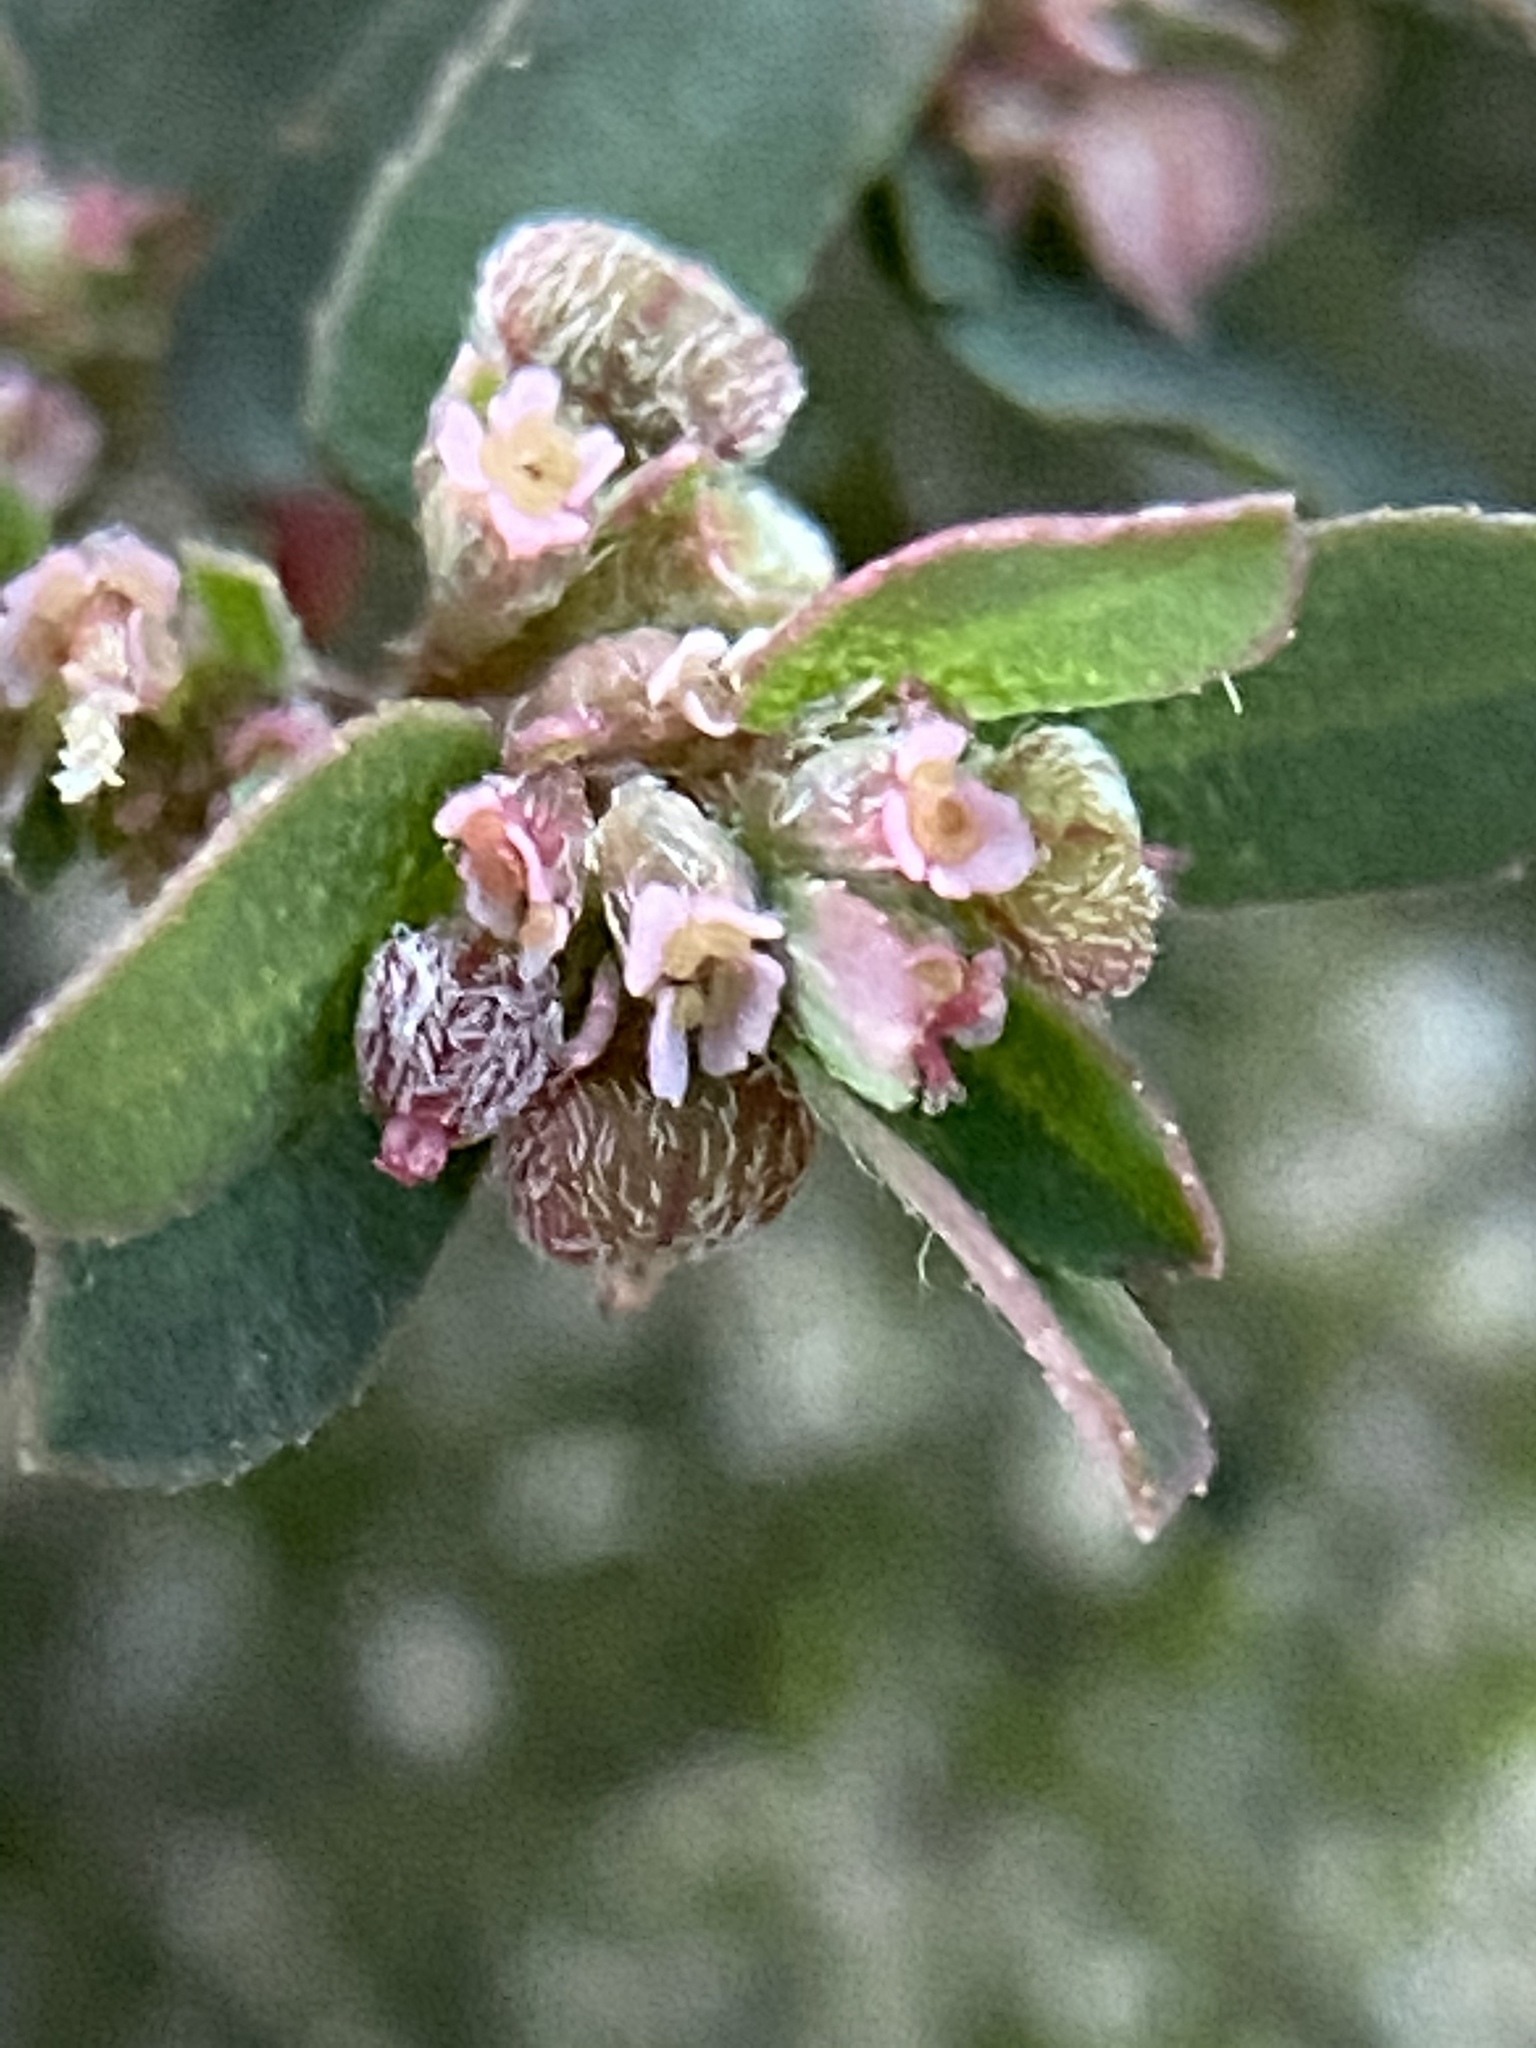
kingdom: Plantae
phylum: Tracheophyta
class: Magnoliopsida
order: Malpighiales
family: Euphorbiaceae
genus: Euphorbia
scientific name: Euphorbia maculata
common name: Spotted spurge
